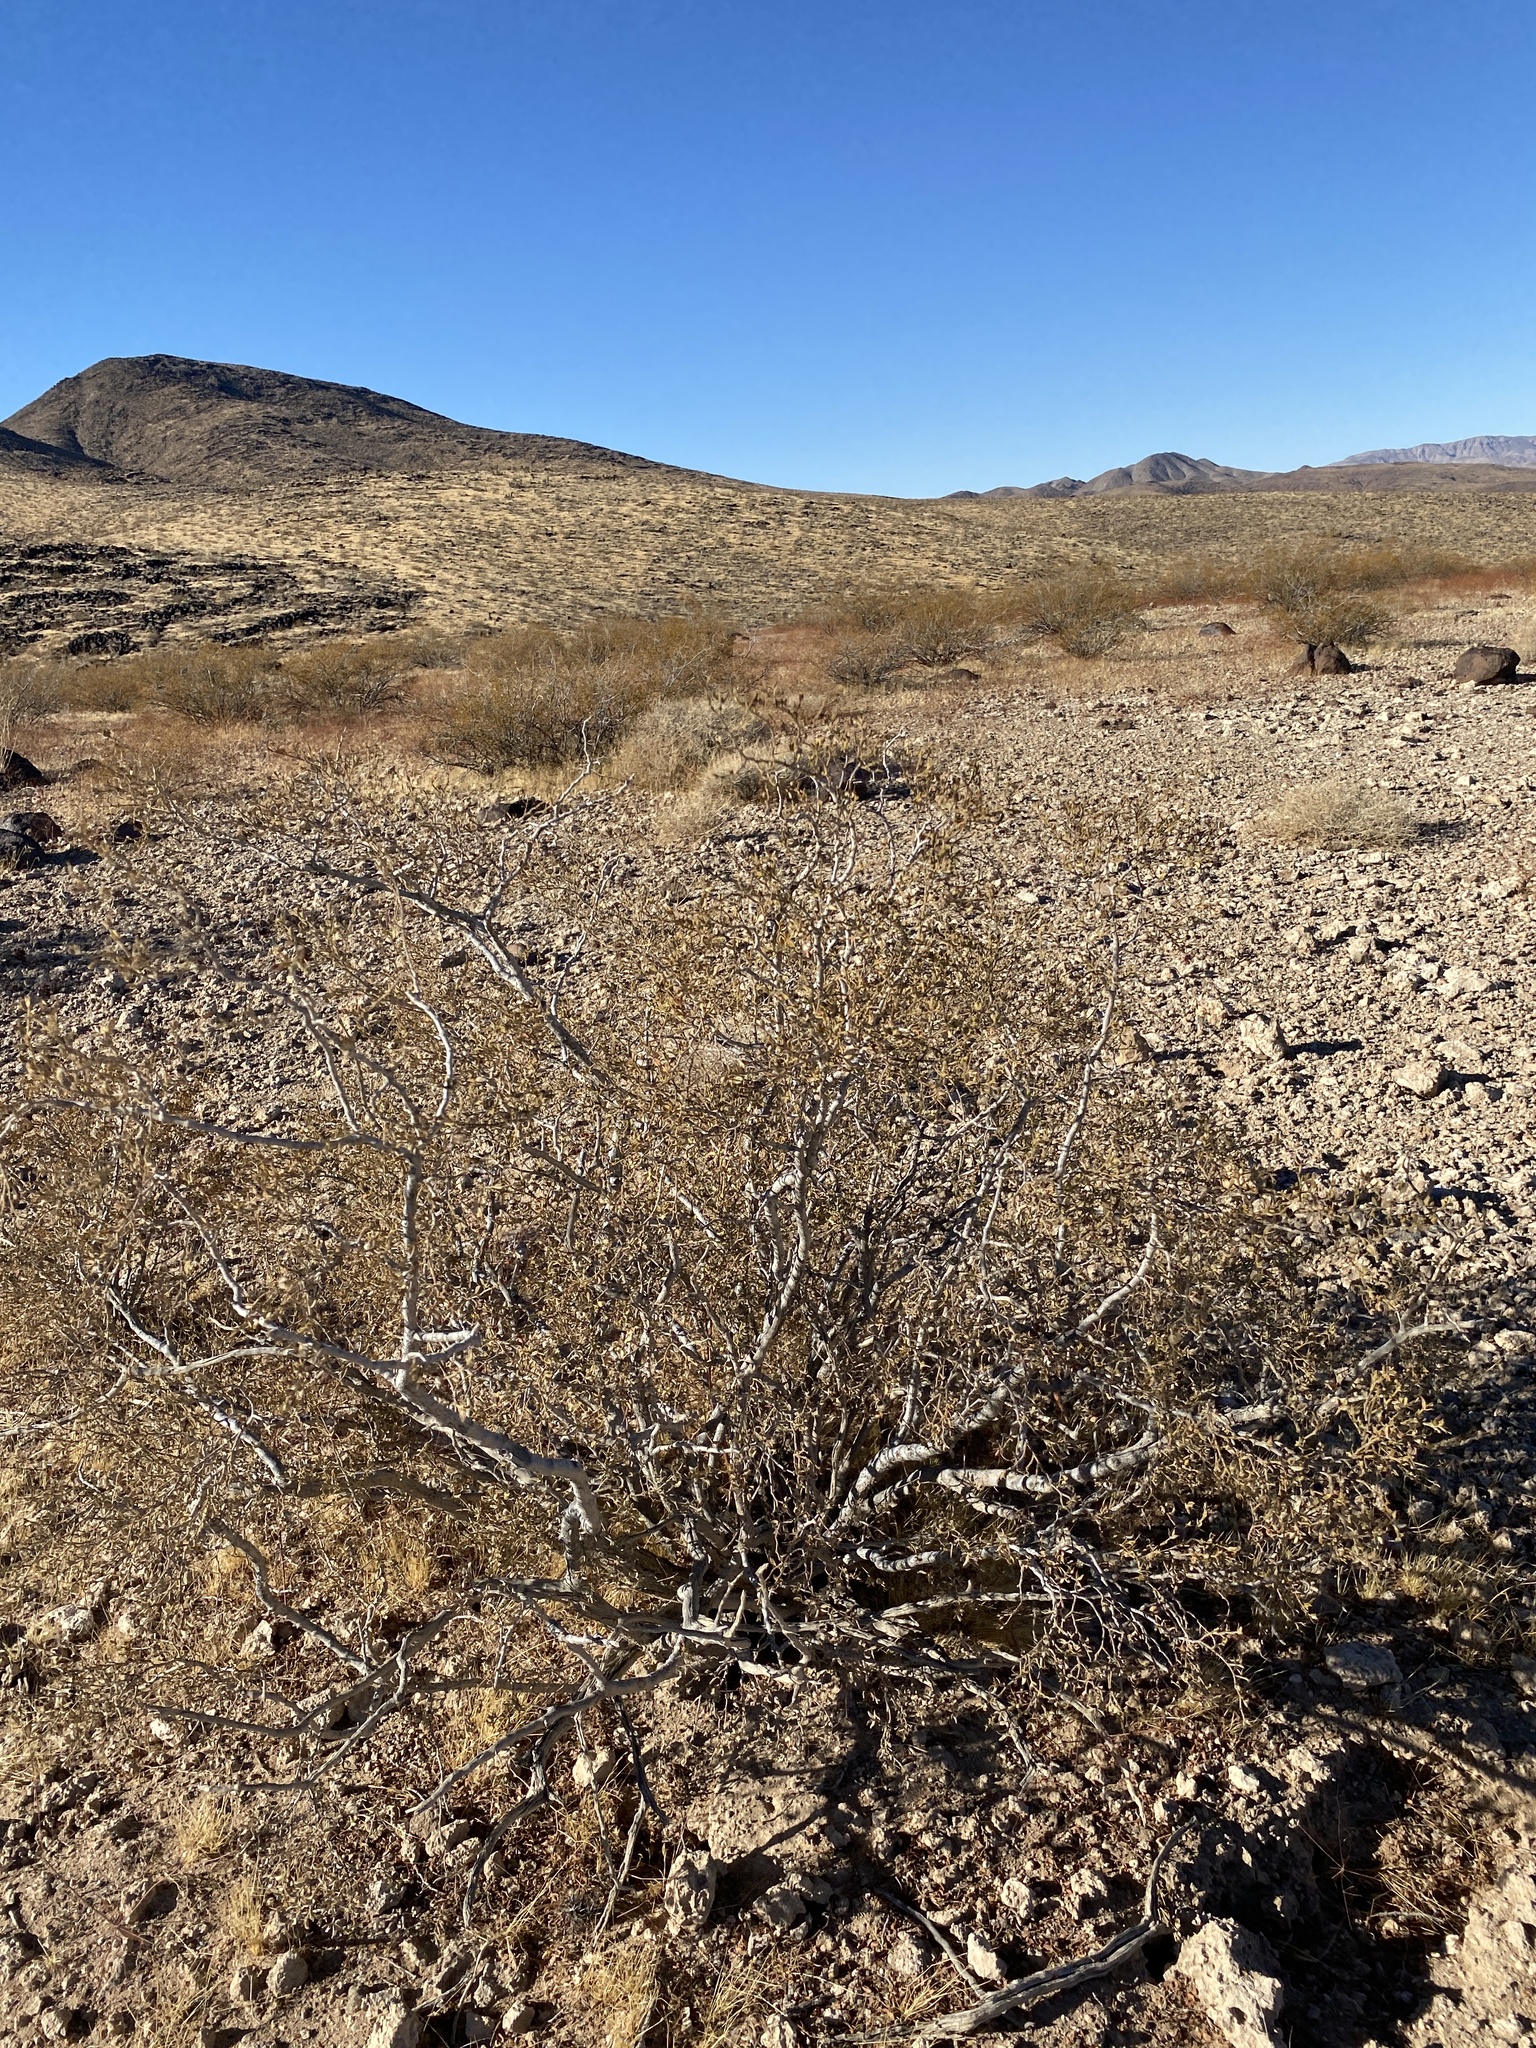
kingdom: Plantae
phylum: Tracheophyta
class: Magnoliopsida
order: Zygophyllales
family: Zygophyllaceae
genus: Larrea
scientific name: Larrea tridentata
